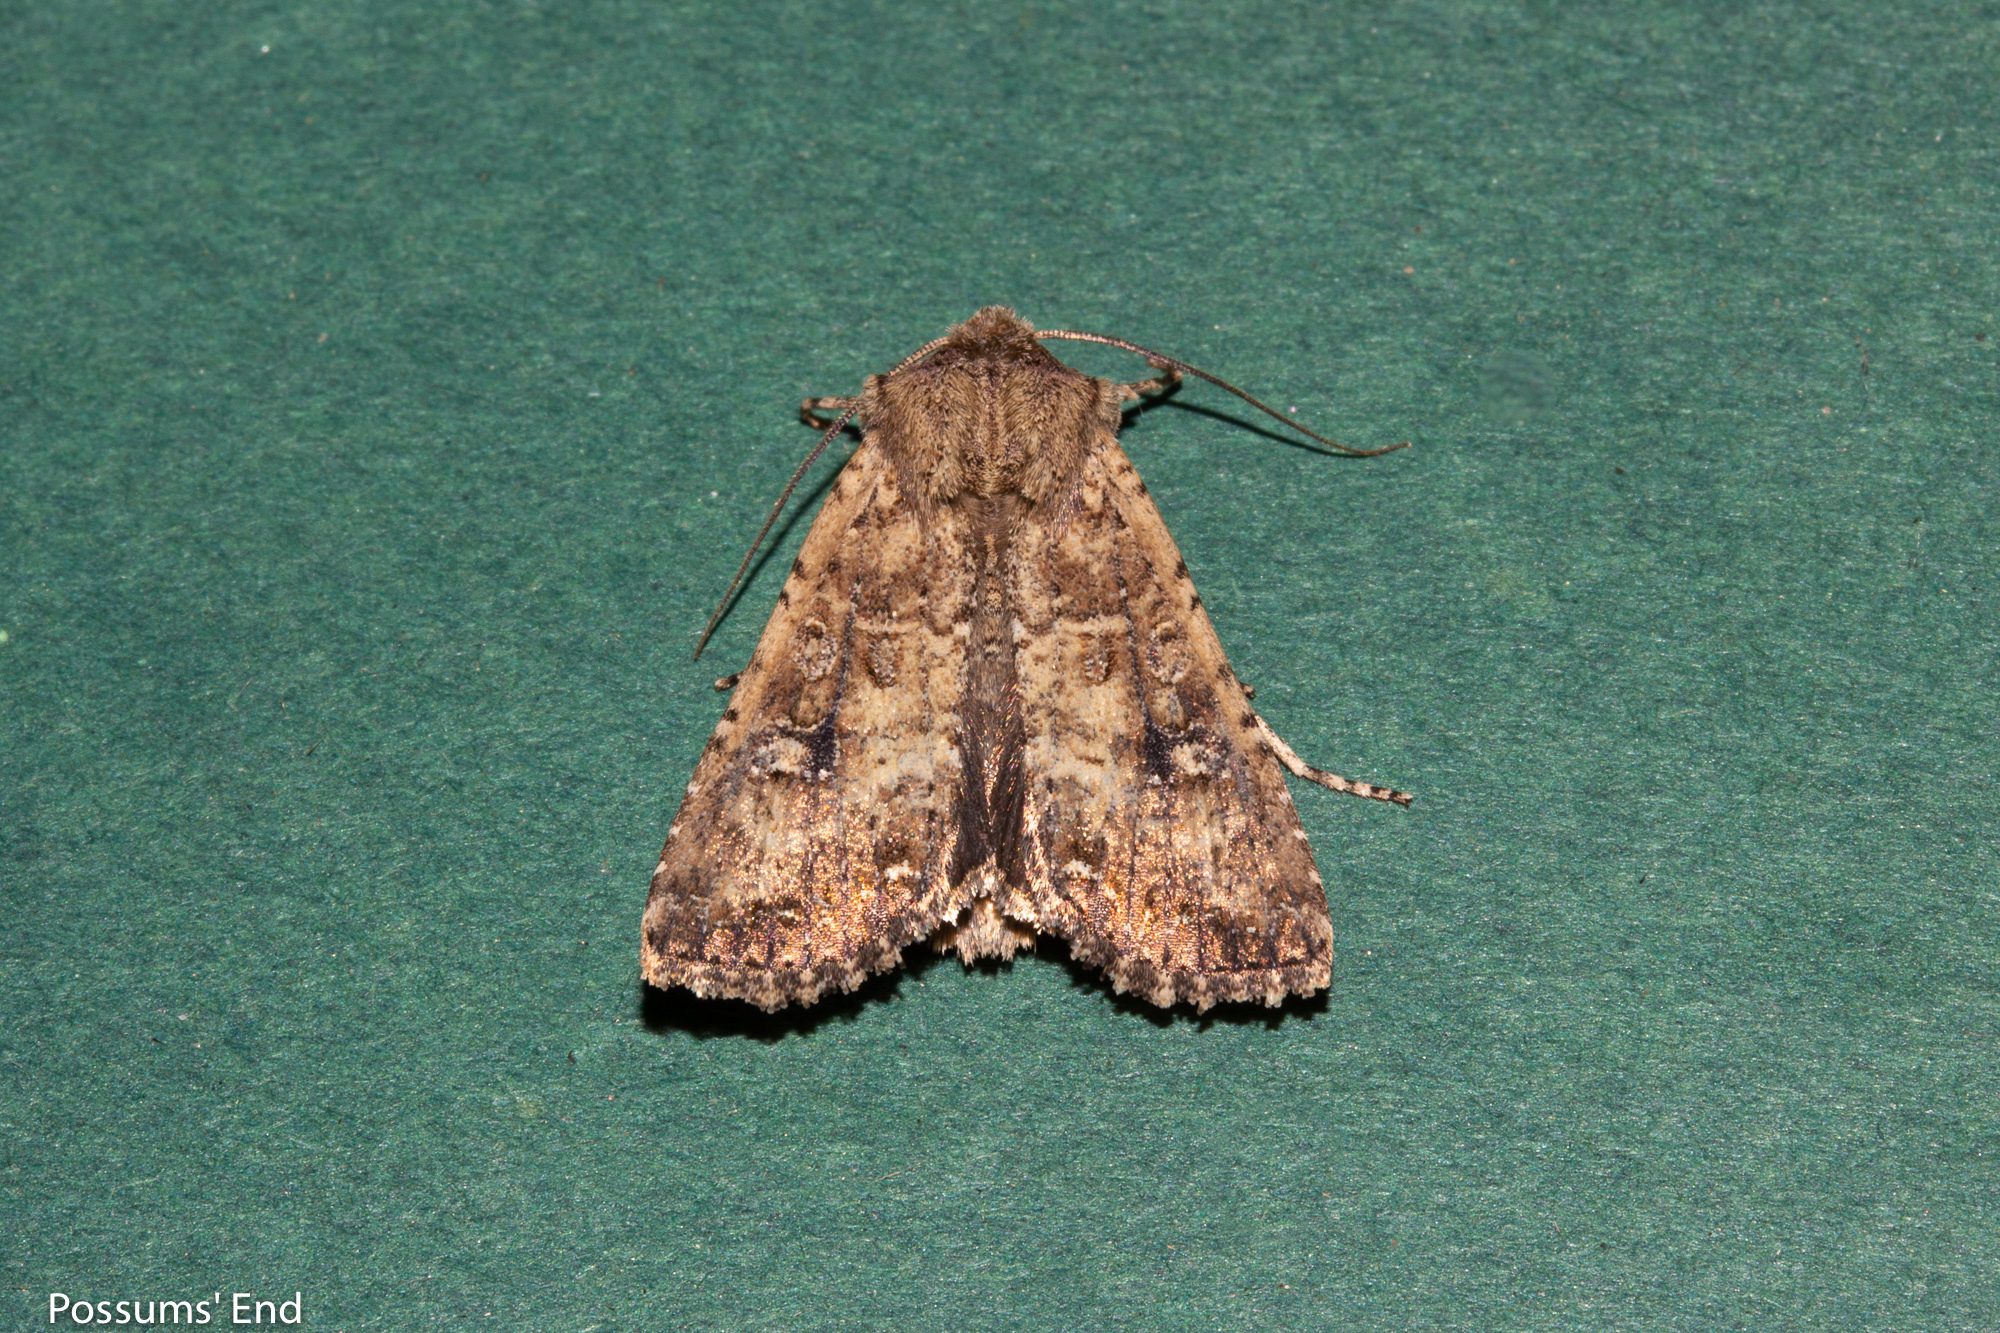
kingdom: Animalia
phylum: Arthropoda
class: Insecta
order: Lepidoptera
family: Noctuidae
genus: Ichneutica
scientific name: Ichneutica morosa
